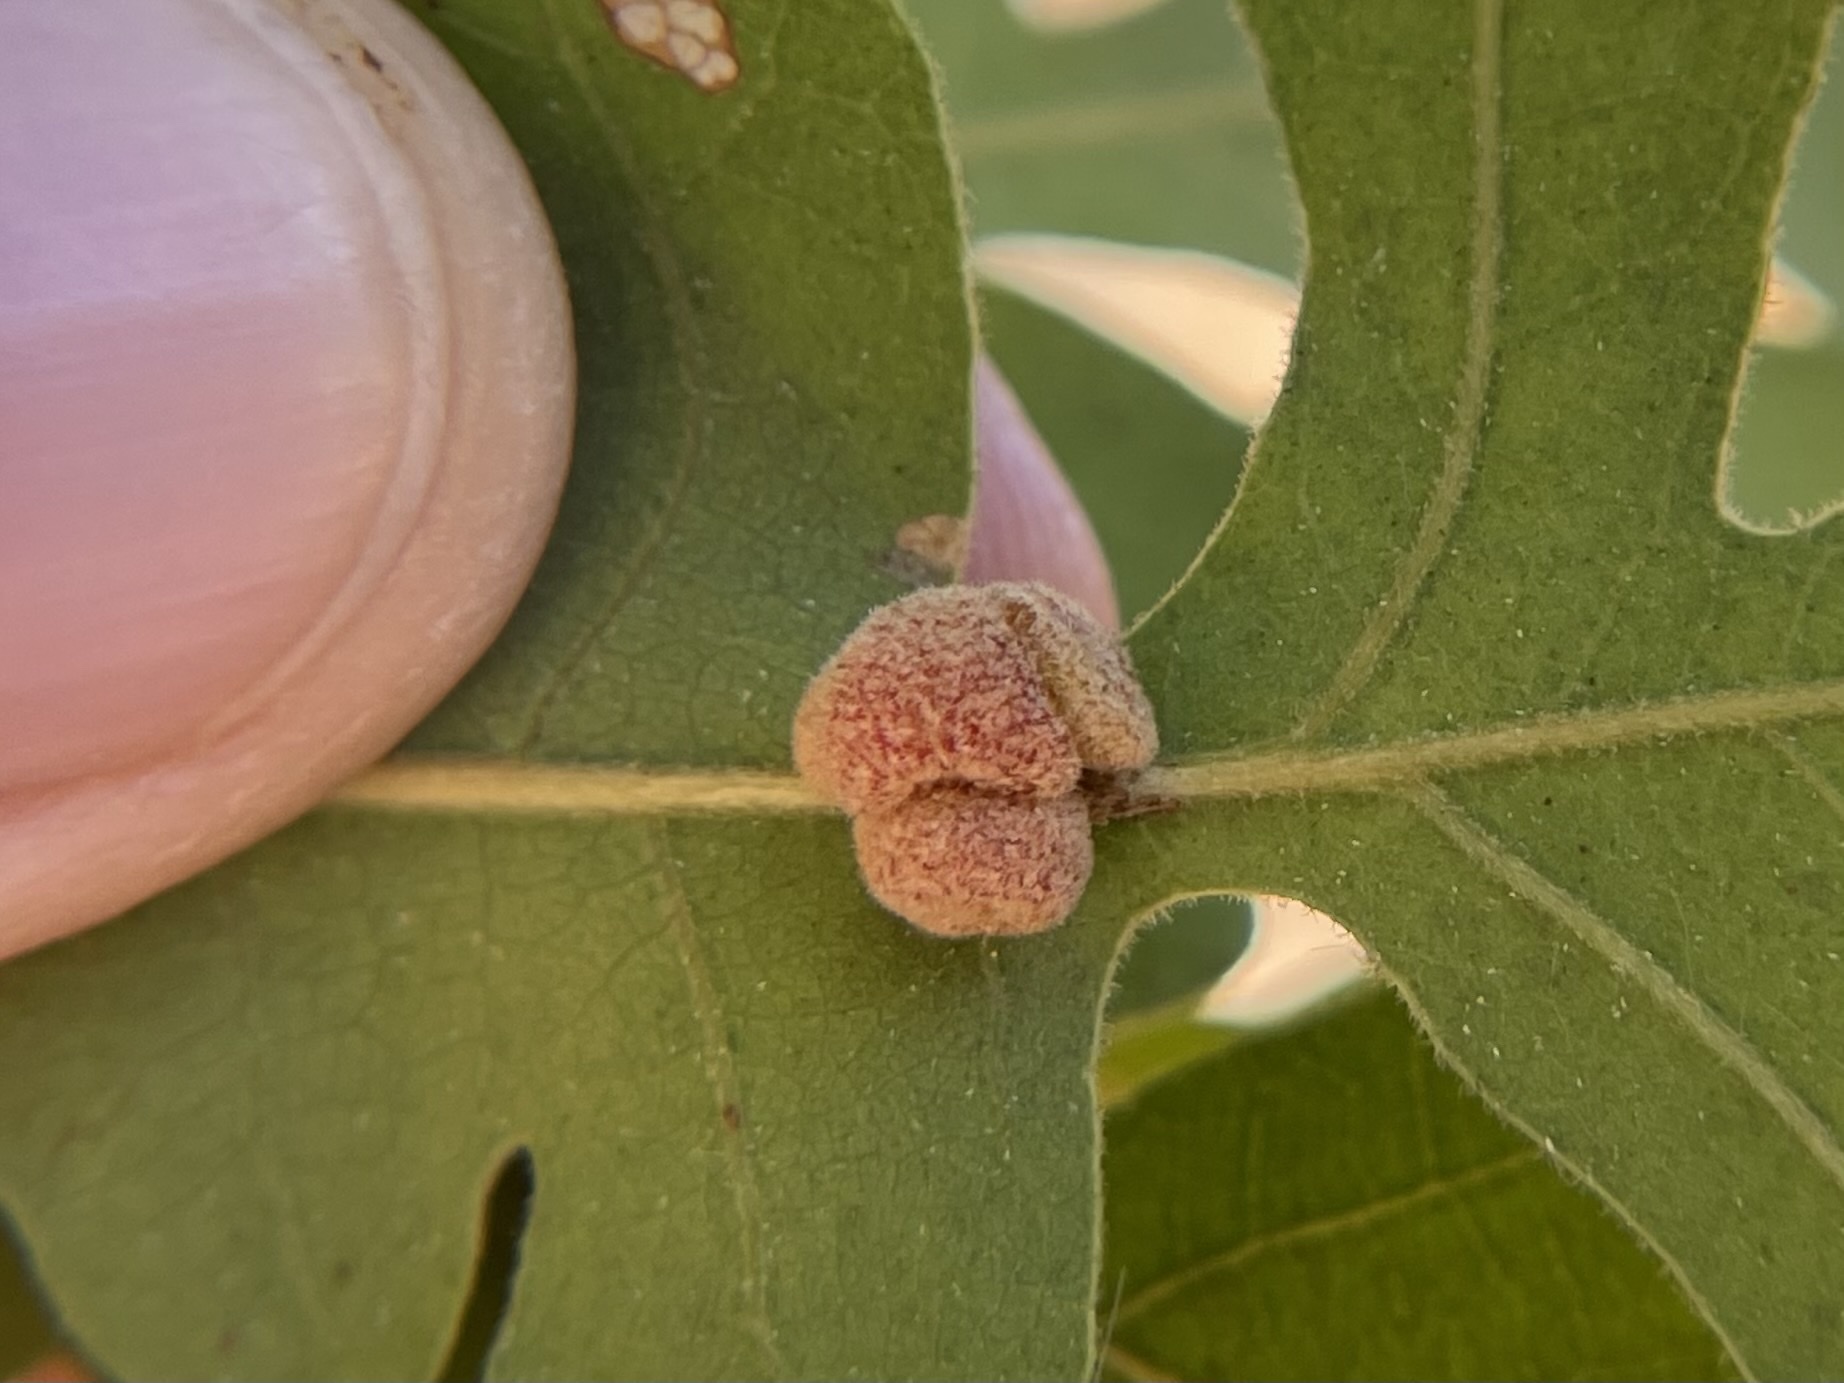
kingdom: Animalia
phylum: Arthropoda
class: Insecta
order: Hymenoptera
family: Cynipidae
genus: Andricus
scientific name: Andricus
